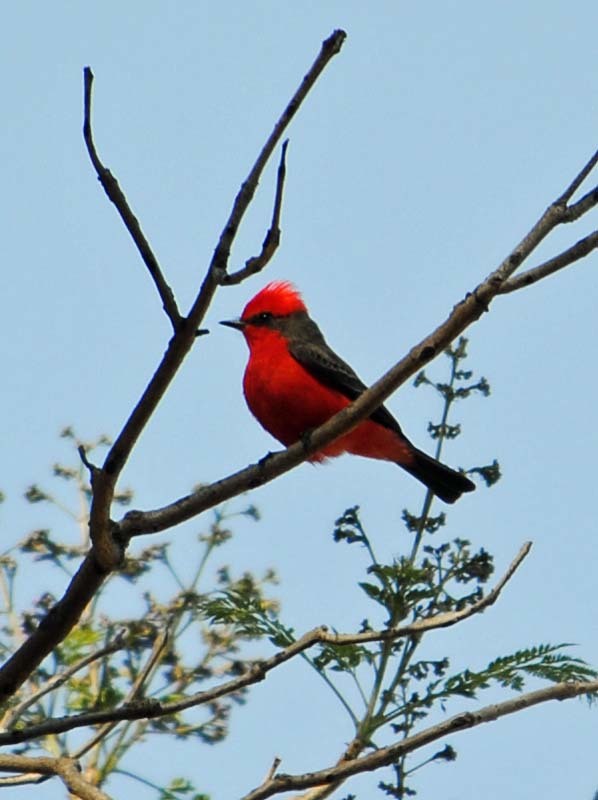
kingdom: Animalia
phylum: Chordata
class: Aves
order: Passeriformes
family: Tyrannidae
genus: Pyrocephalus
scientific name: Pyrocephalus rubinus
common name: Vermilion flycatcher
